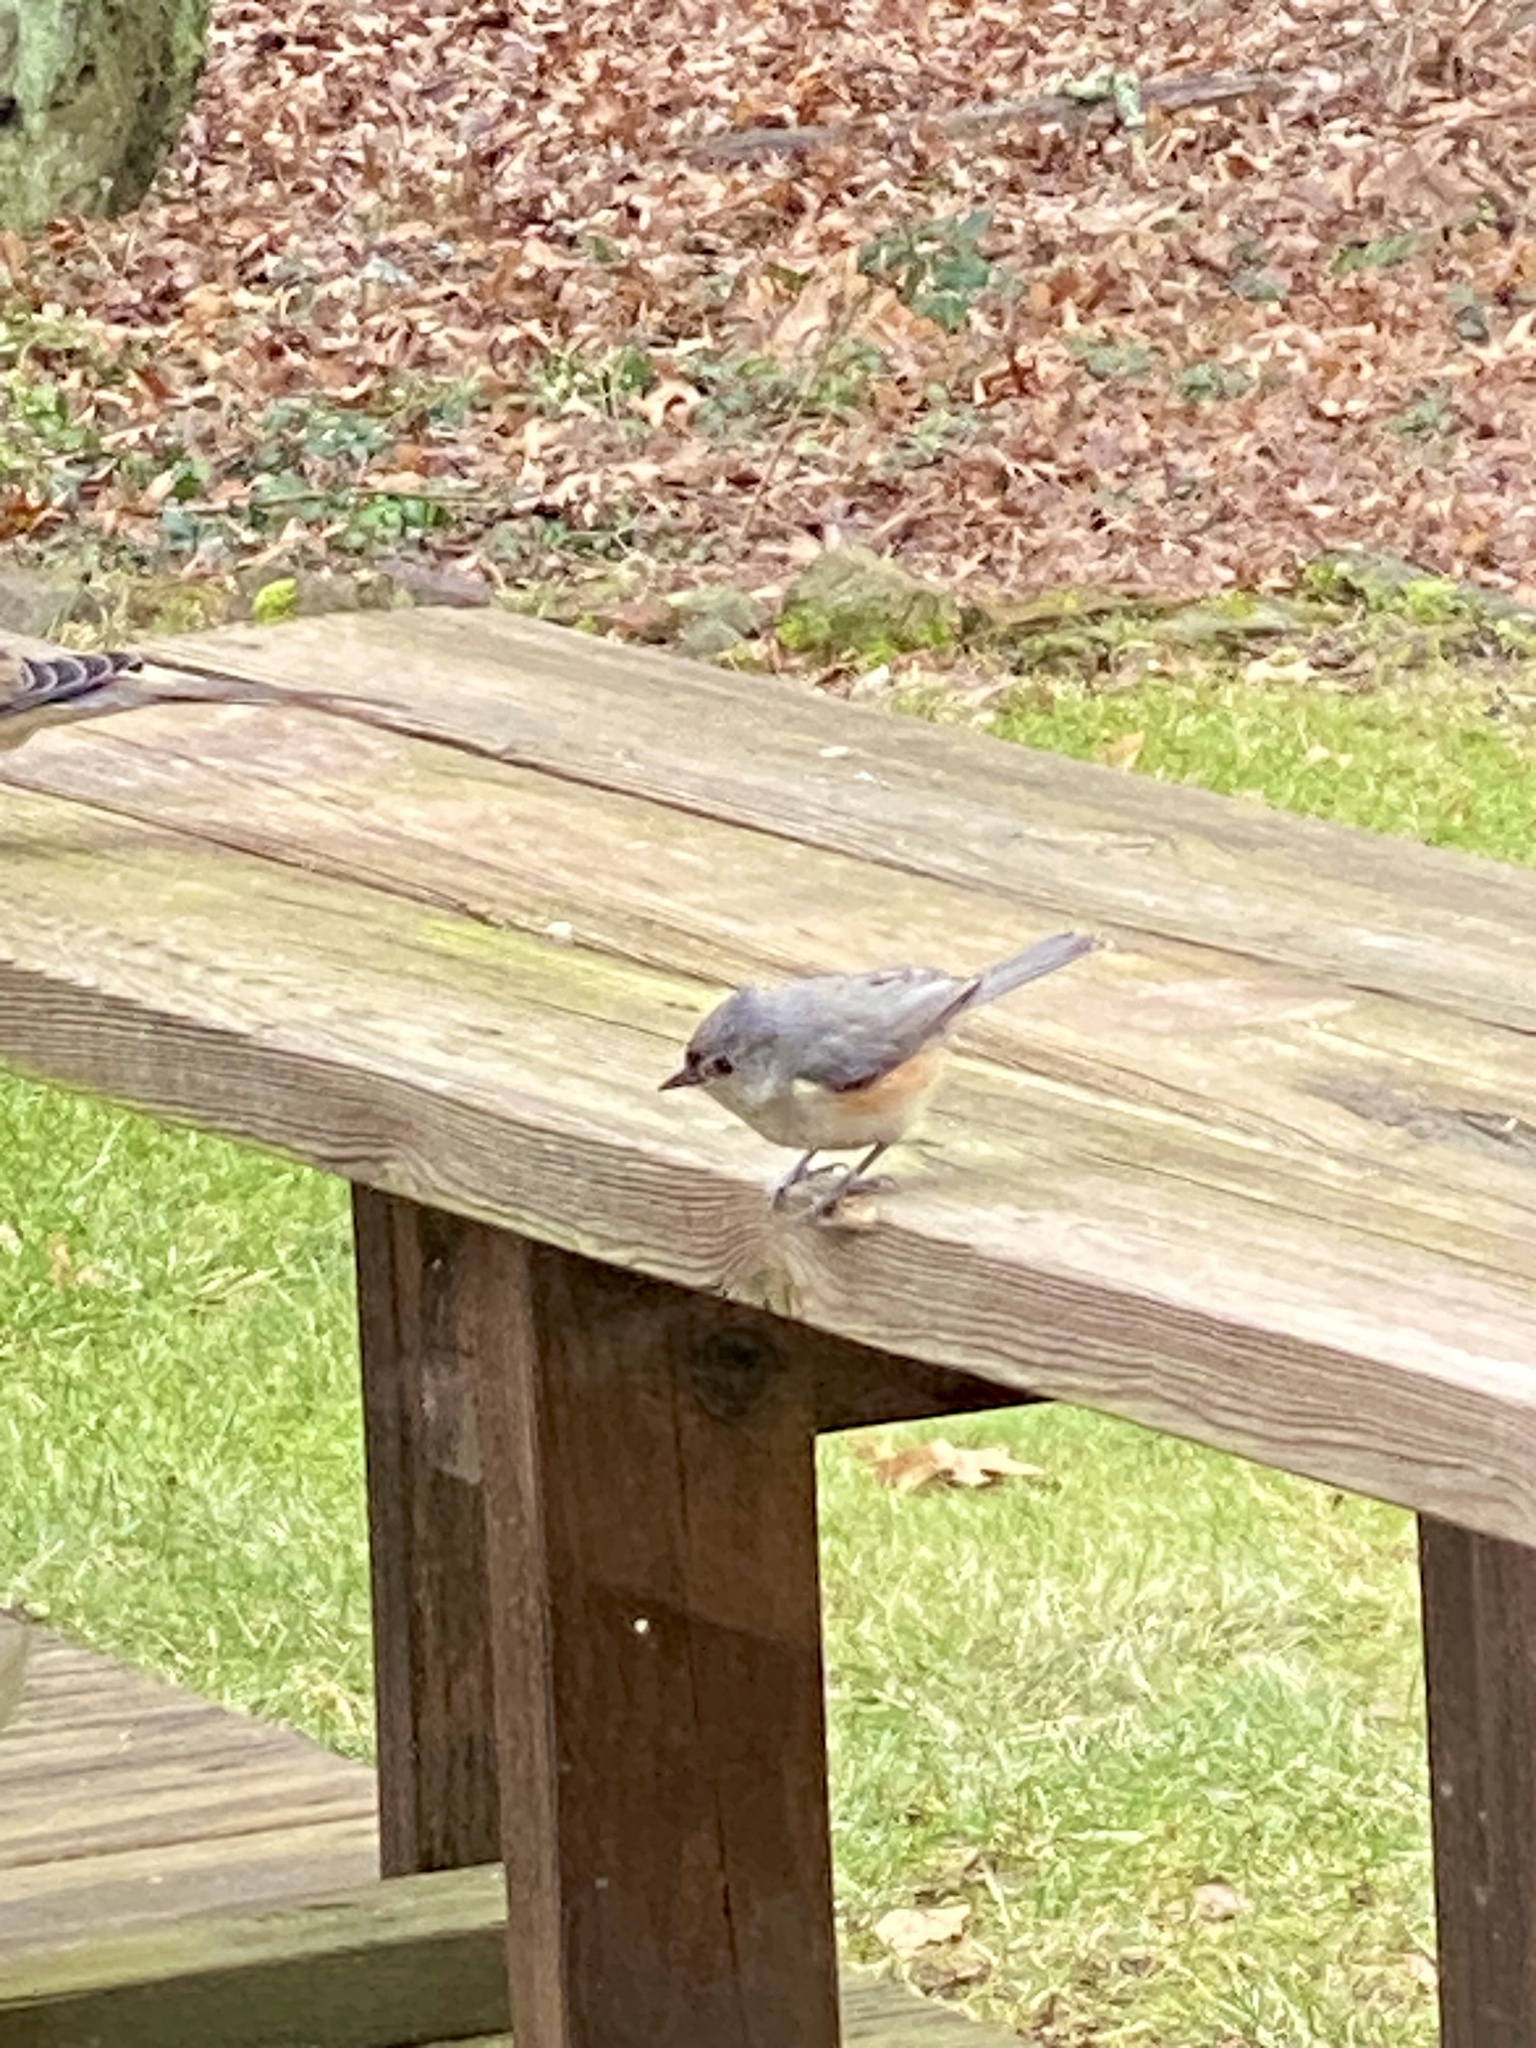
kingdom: Animalia
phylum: Chordata
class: Aves
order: Passeriformes
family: Paridae
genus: Baeolophus
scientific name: Baeolophus bicolor
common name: Tufted titmouse
